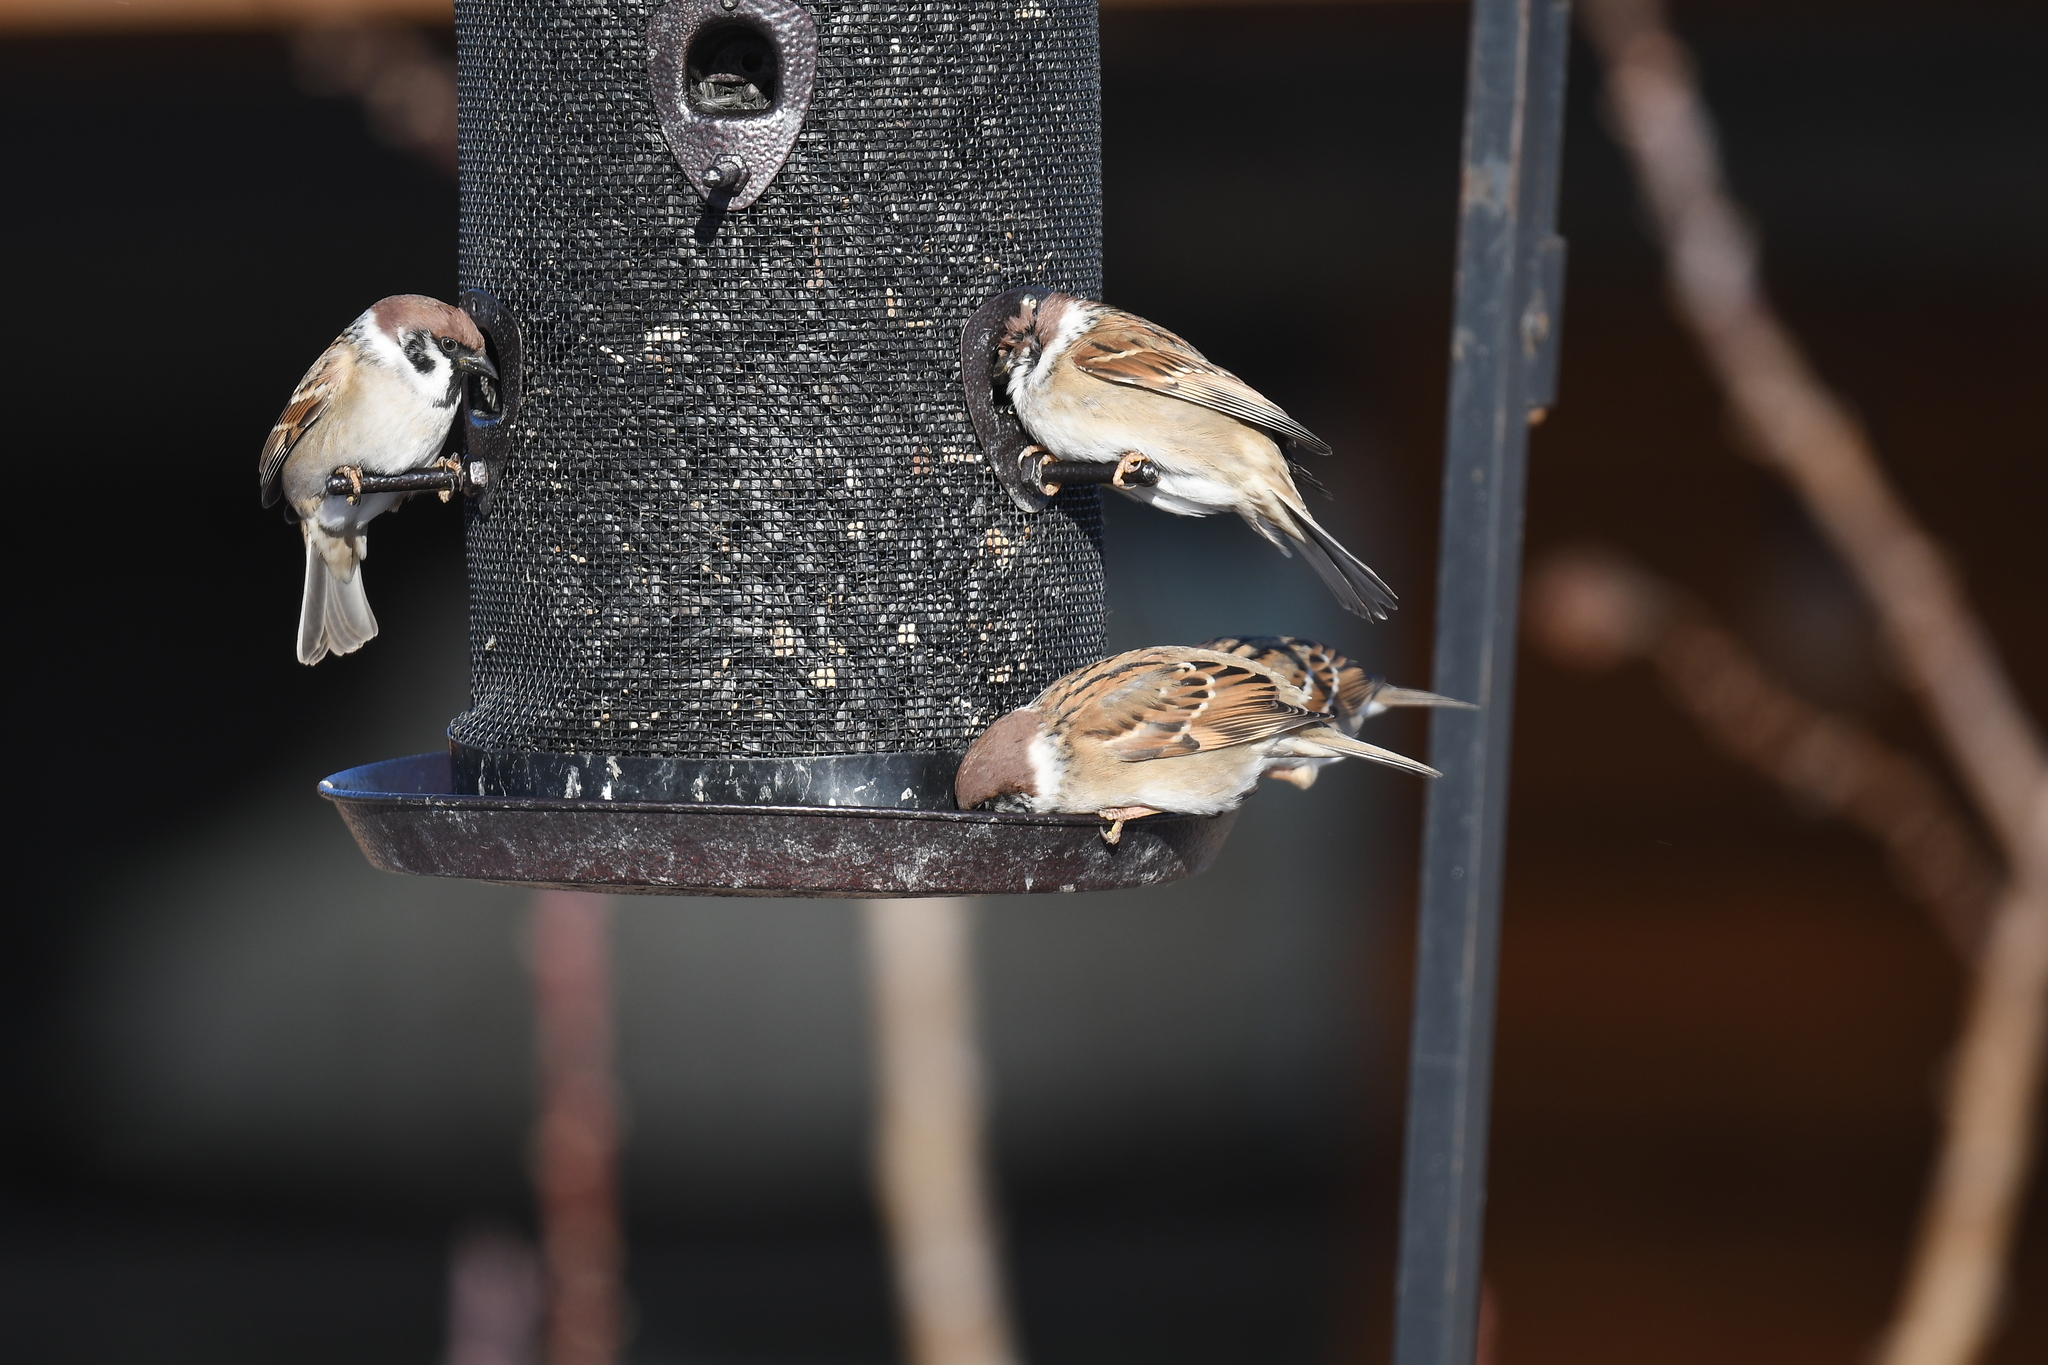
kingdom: Animalia
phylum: Chordata
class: Aves
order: Passeriformes
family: Passeridae
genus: Passer
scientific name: Passer montanus
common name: Eurasian tree sparrow
